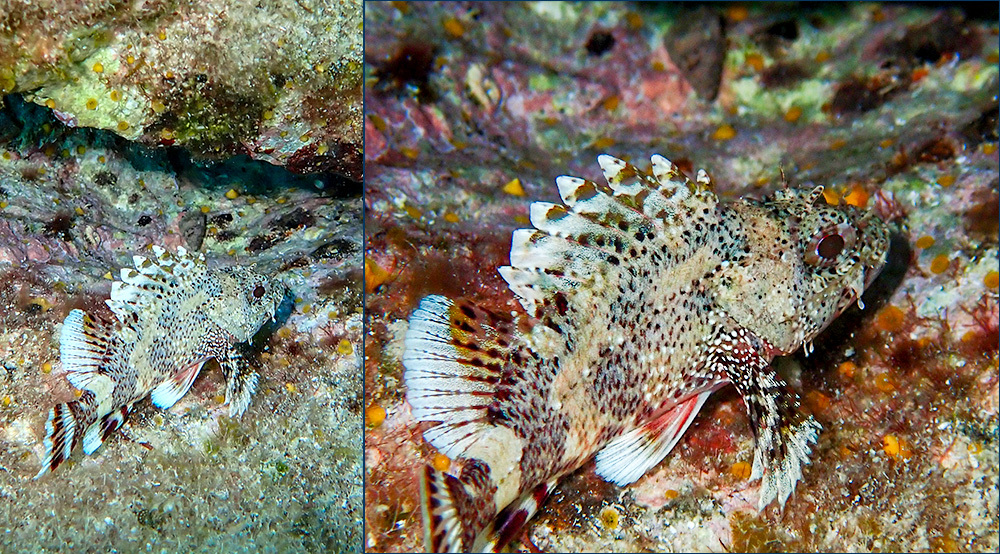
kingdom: Animalia
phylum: Chordata
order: Scorpaeniformes
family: Scorpaenidae
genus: Scorpaena
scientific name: Scorpaena maderensis
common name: Madeira rockfish
